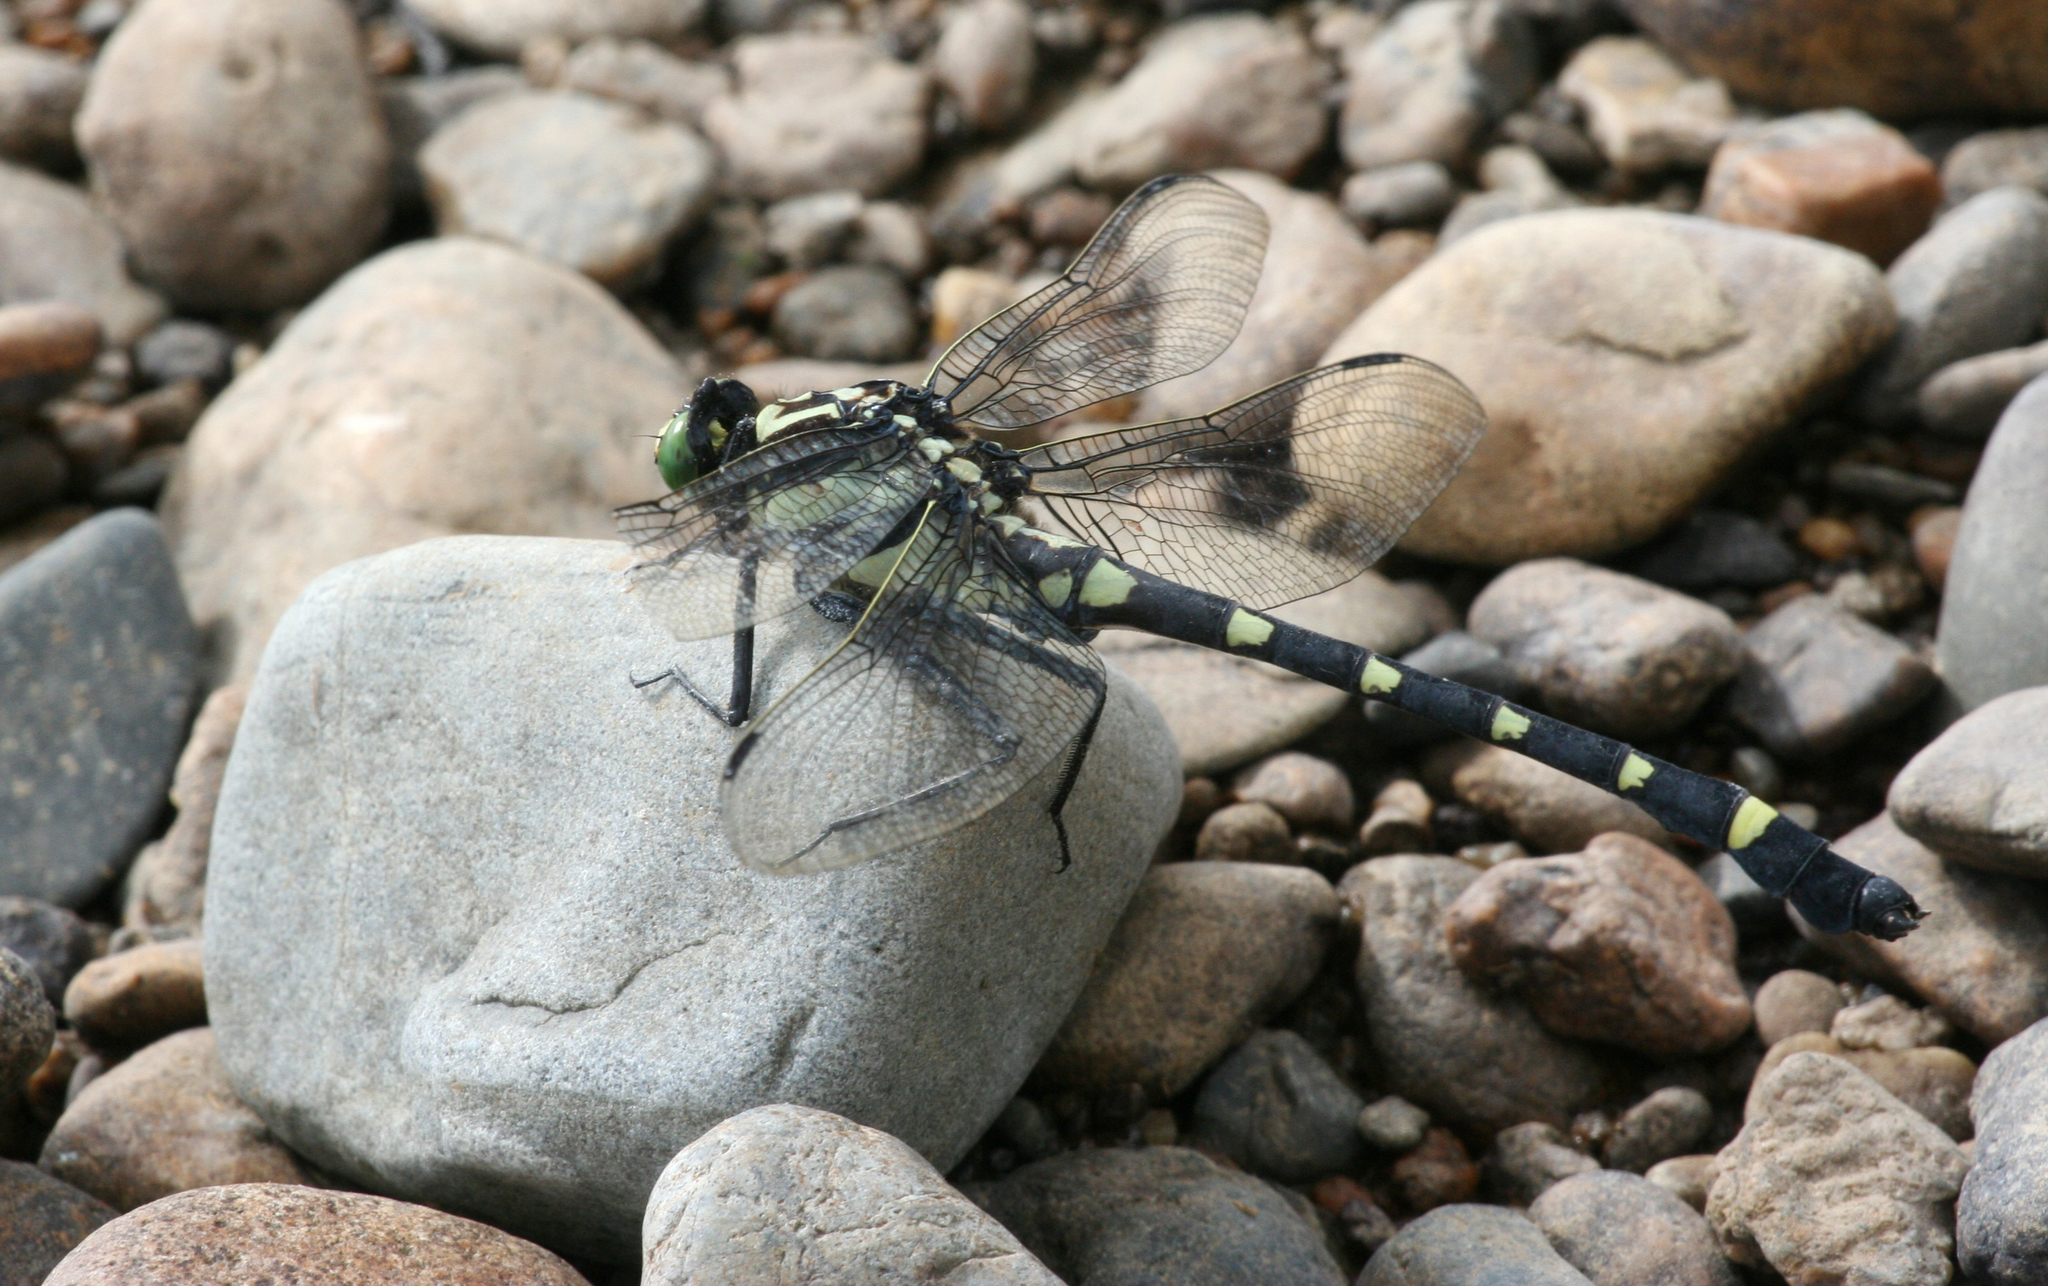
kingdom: Animalia
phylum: Arthropoda
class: Insecta
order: Odonata
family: Gomphidae
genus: Sieboldius
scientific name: Sieboldius albardae
